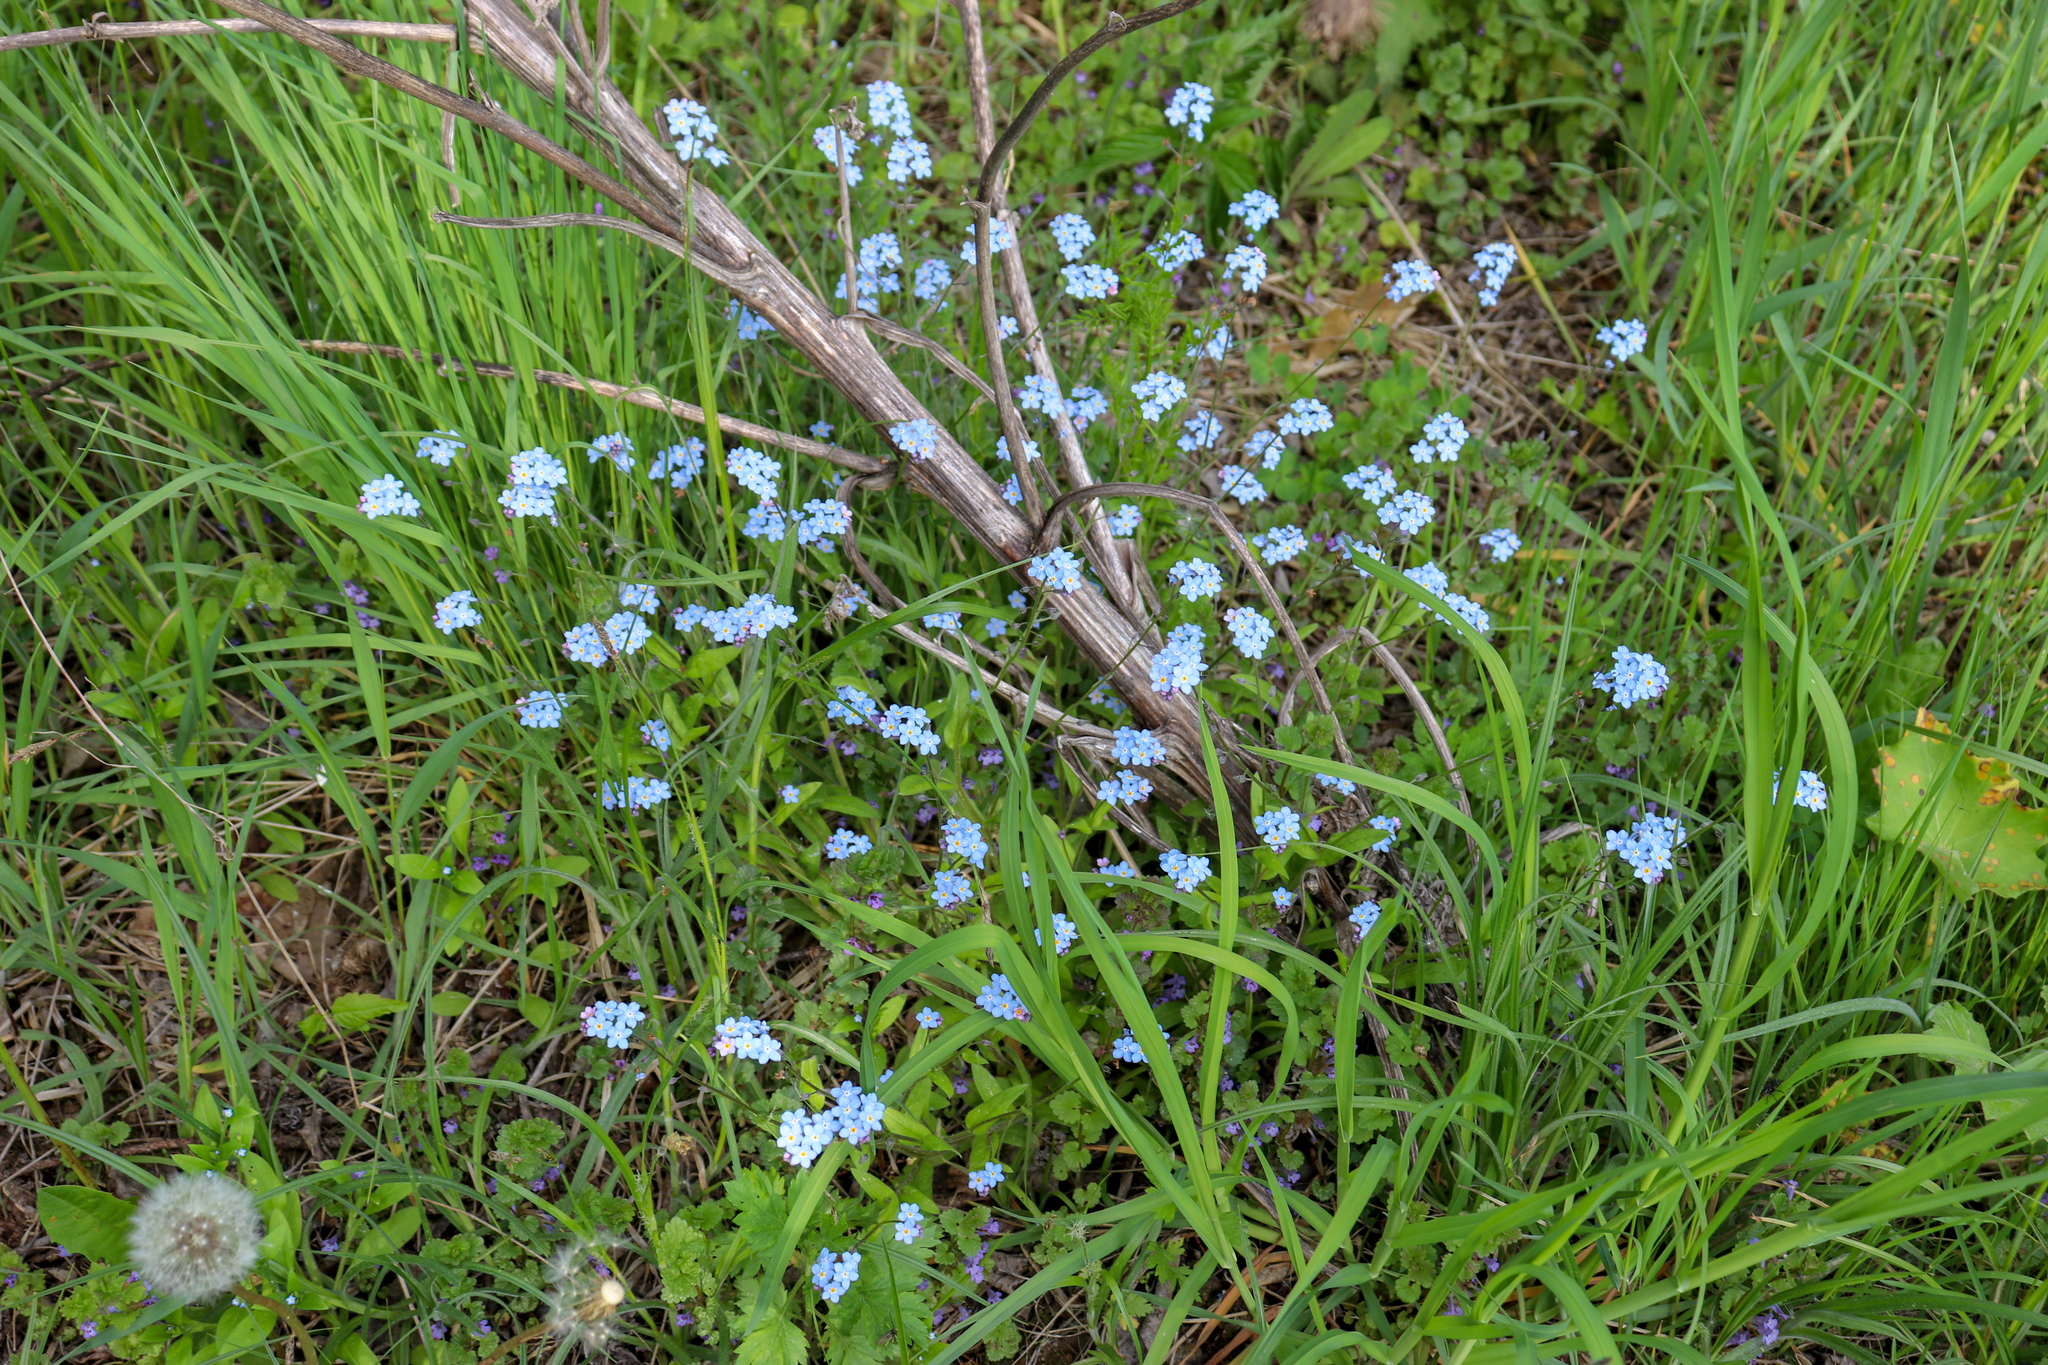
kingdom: Plantae
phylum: Tracheophyta
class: Magnoliopsida
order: Boraginales
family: Boraginaceae
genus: Myosotis
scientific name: Myosotis sylvatica
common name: Wood forget-me-not
